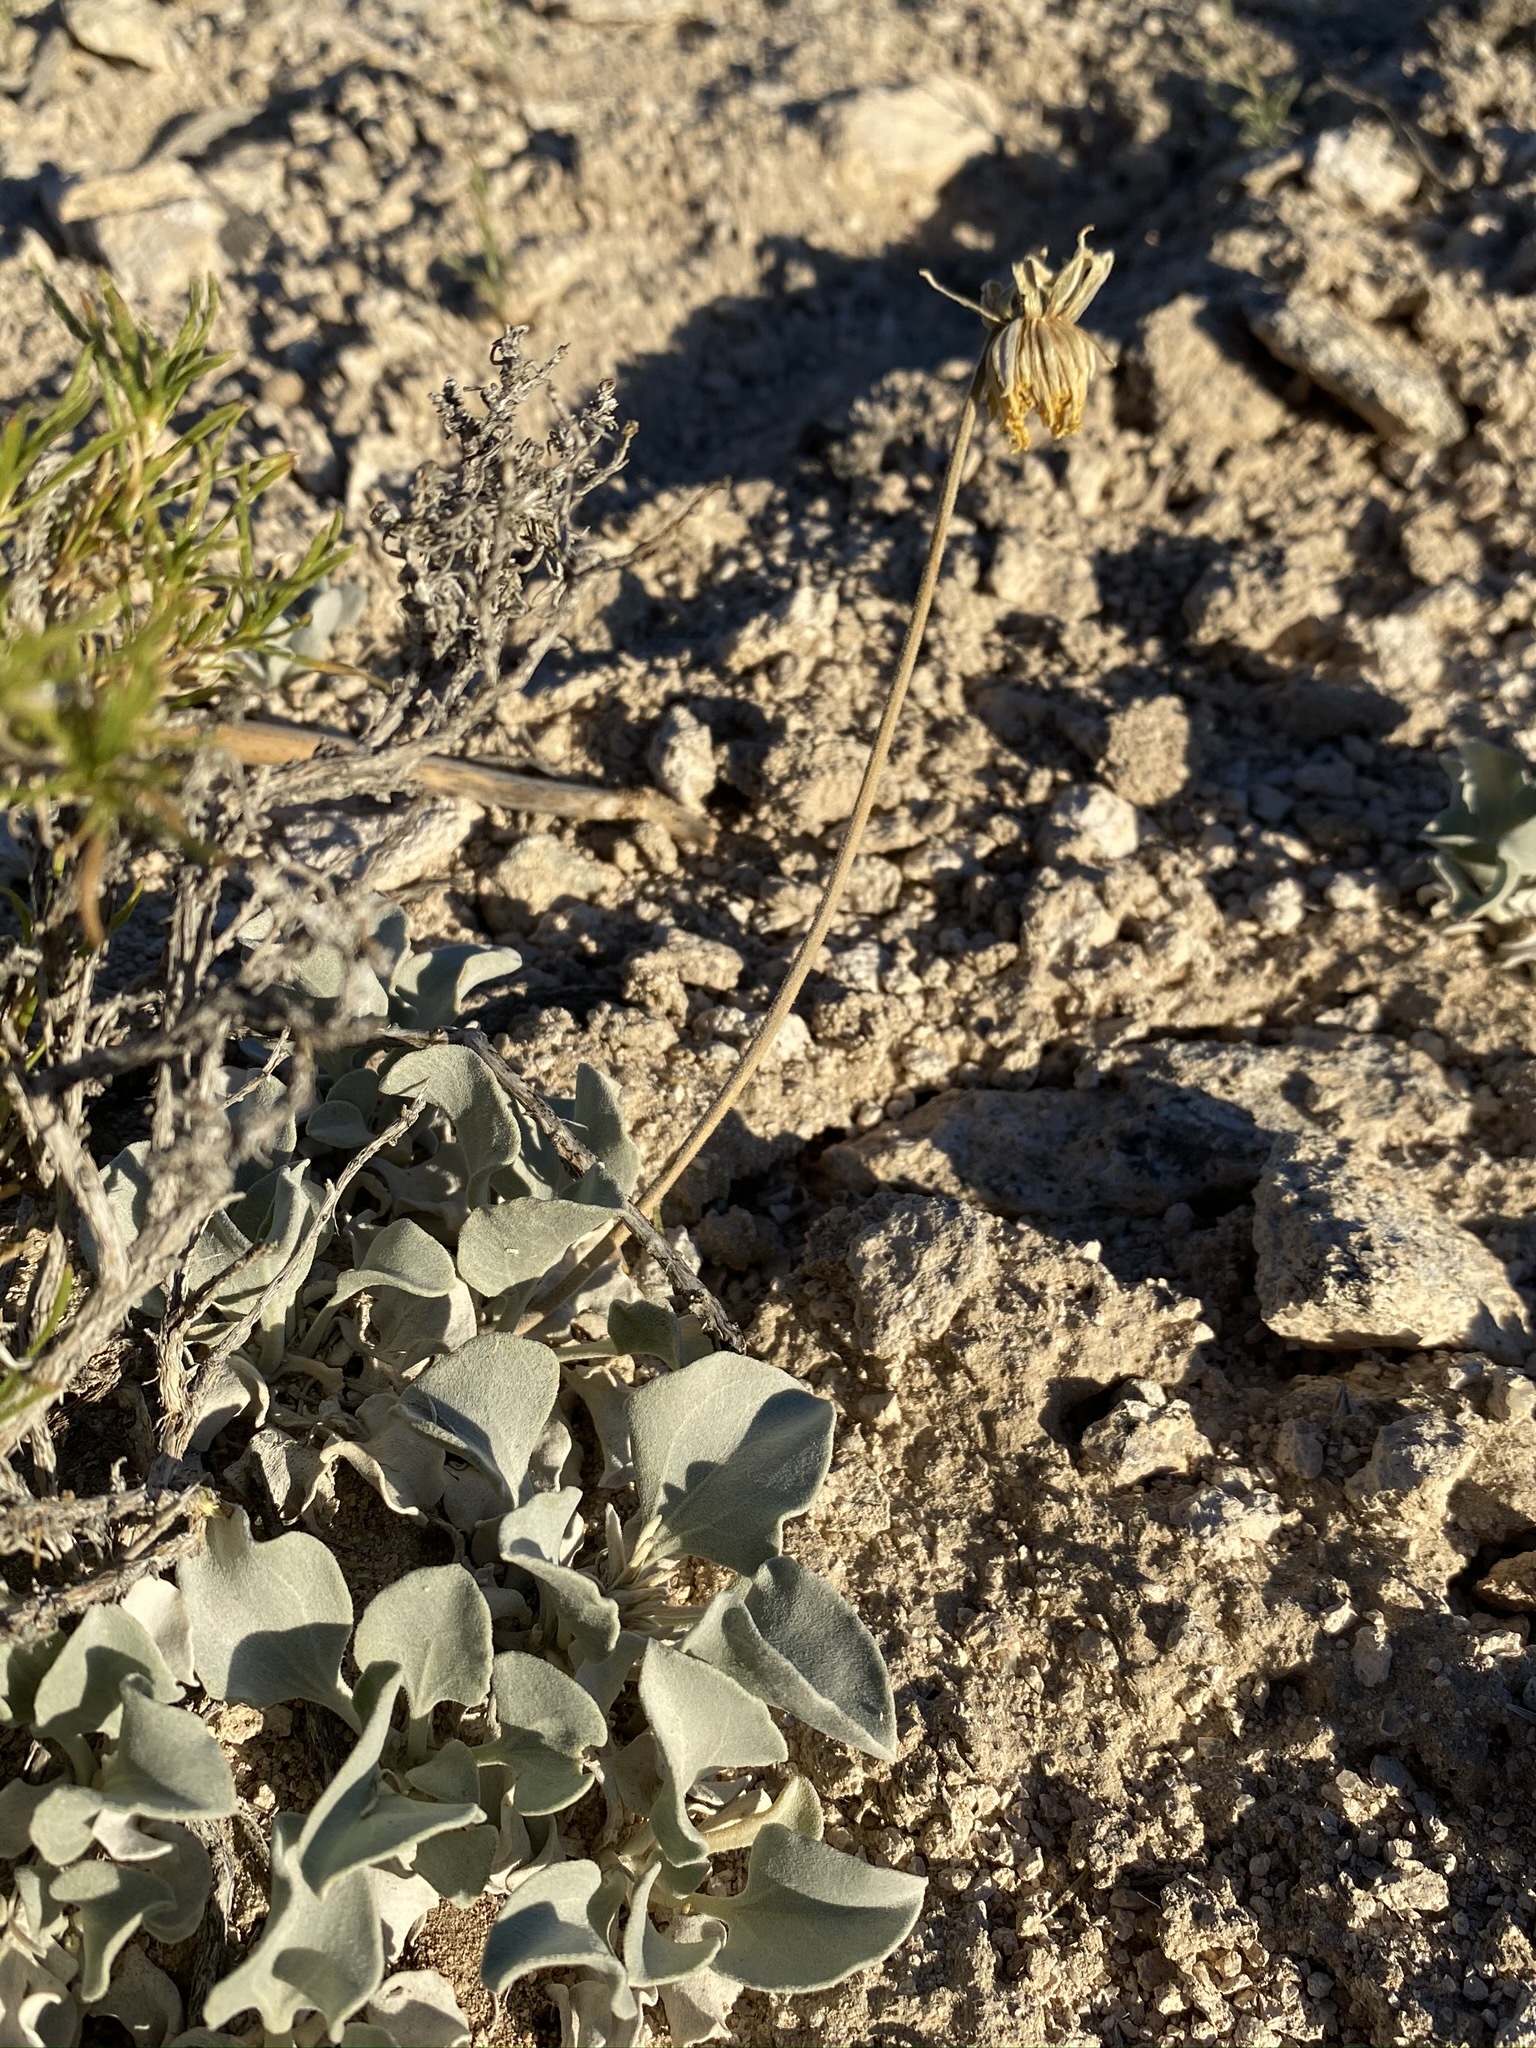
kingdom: Plantae
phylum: Tracheophyta
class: Magnoliopsida
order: Asterales
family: Asteraceae
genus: Enceliopsis
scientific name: Enceliopsis nudicaulis
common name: Naked-stem daisy
